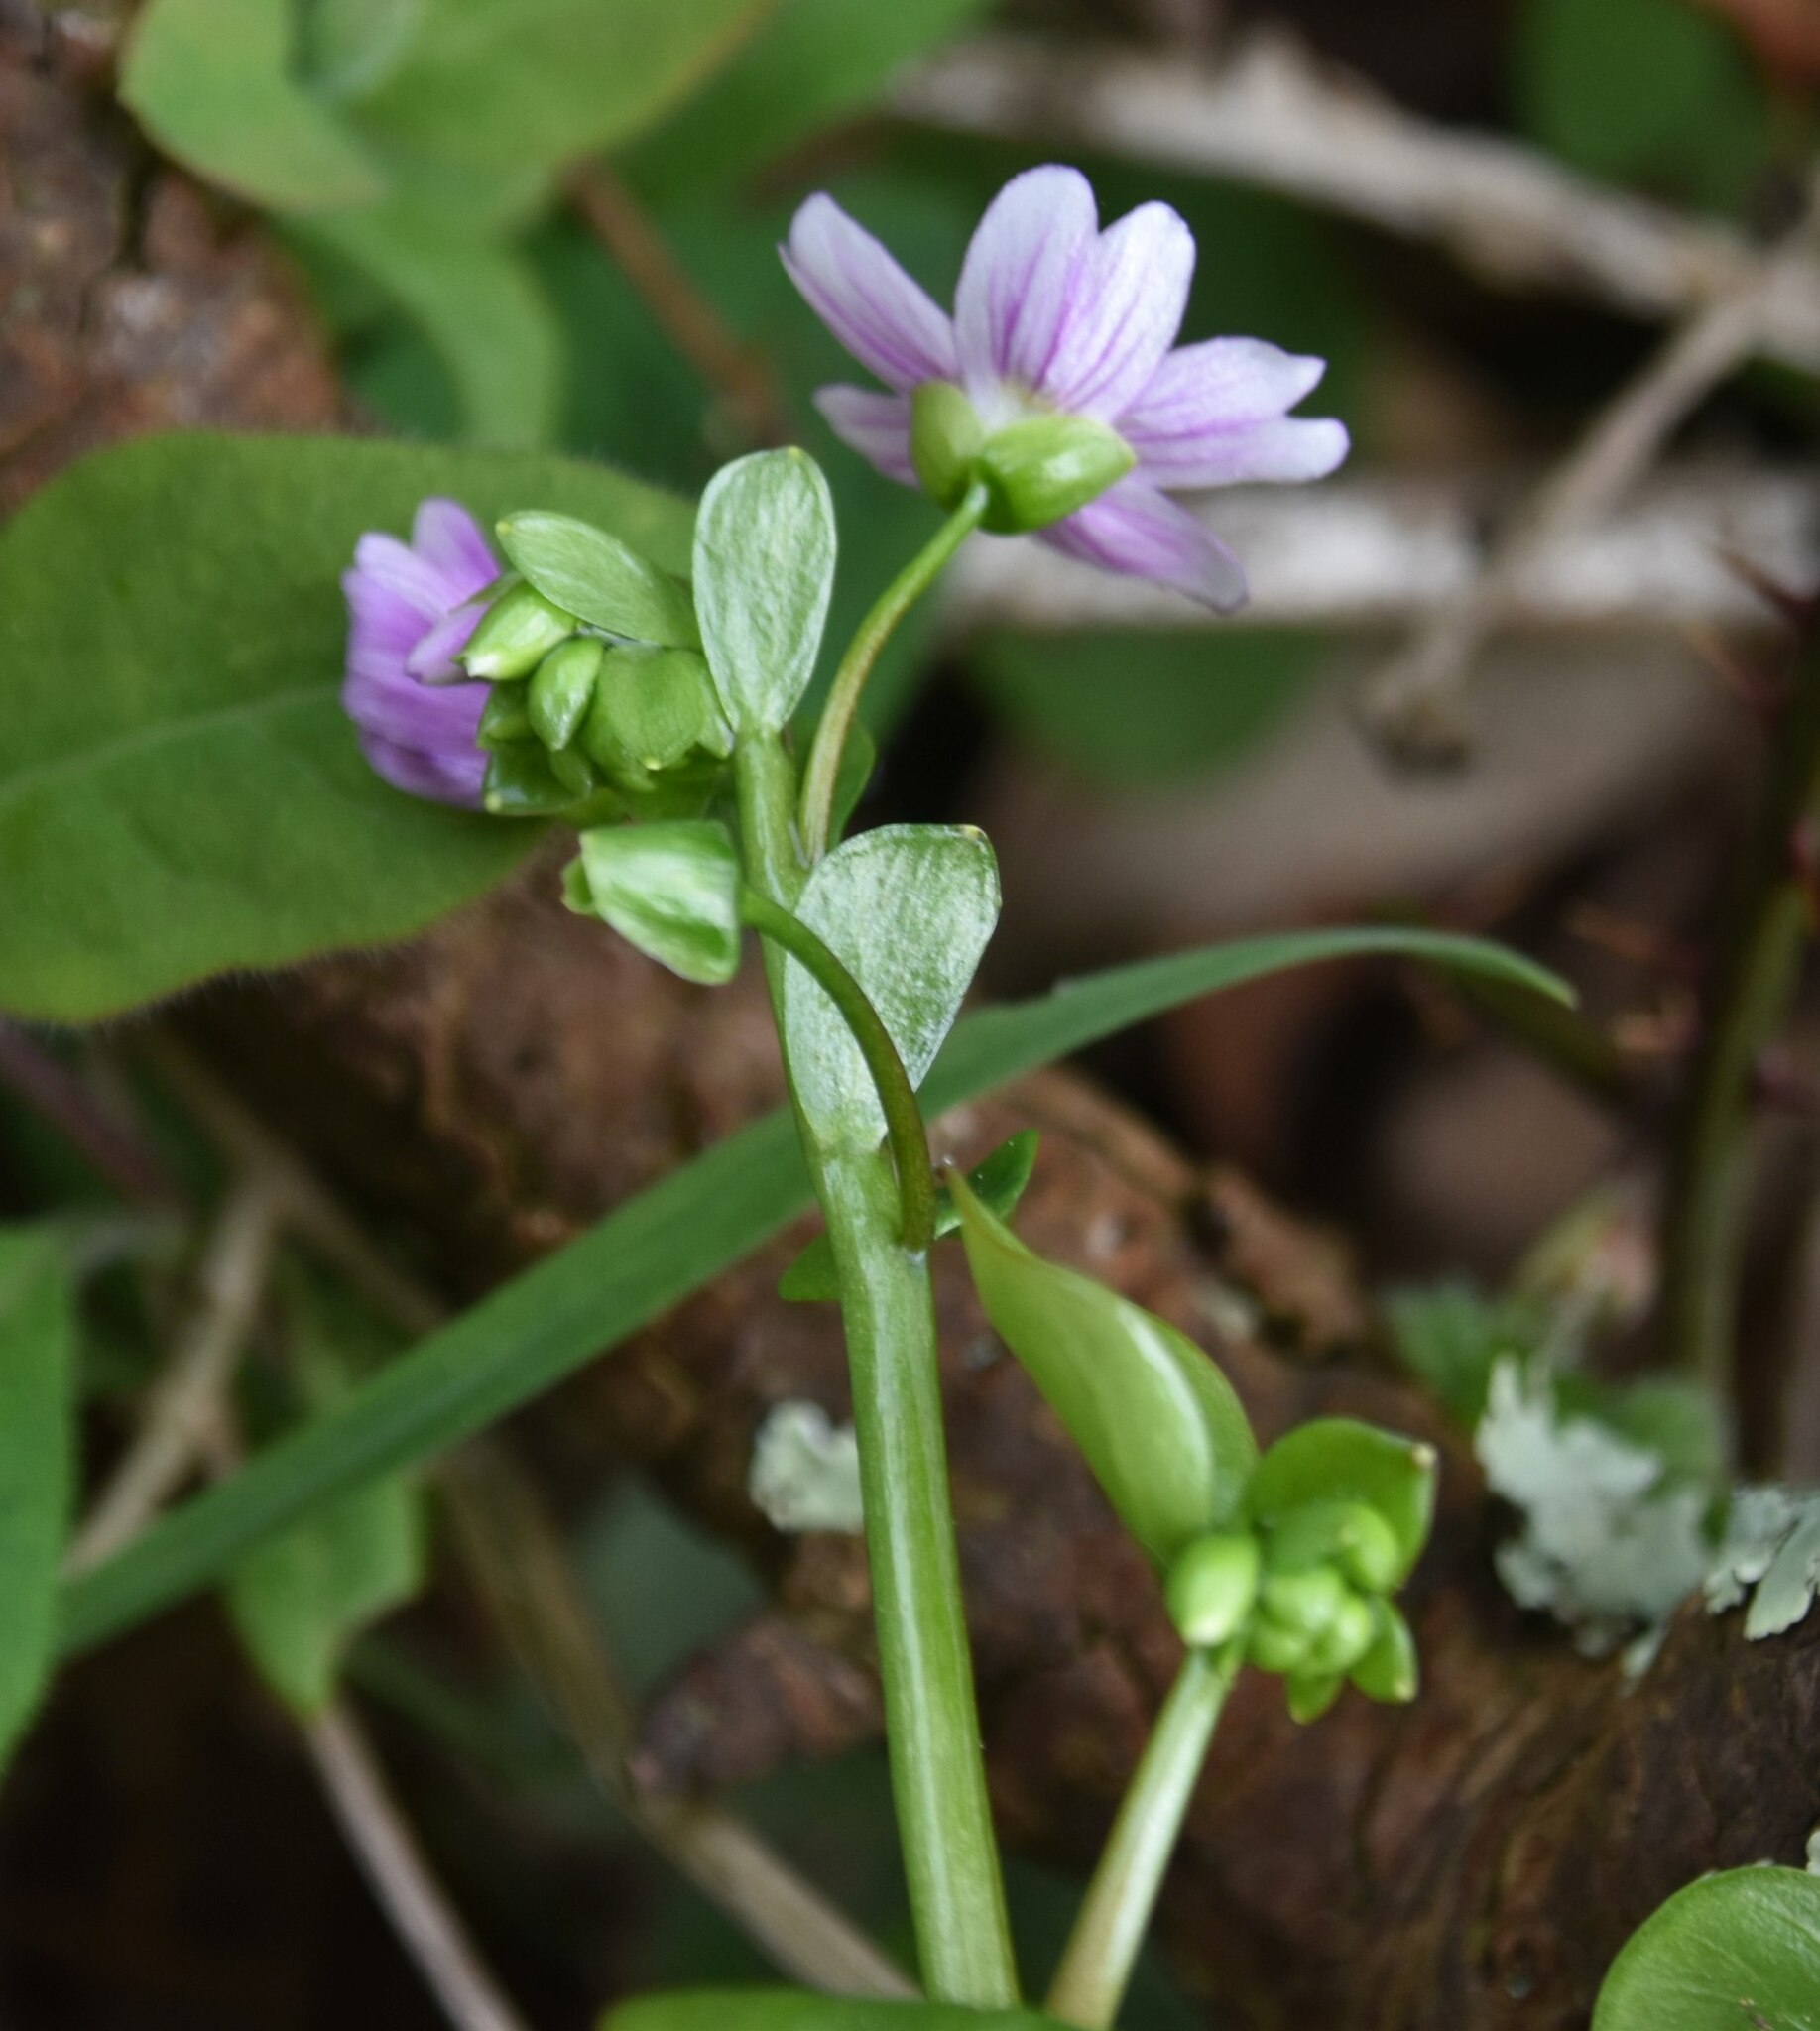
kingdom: Plantae
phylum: Tracheophyta
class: Magnoliopsida
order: Caryophyllales
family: Montiaceae
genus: Claytonia
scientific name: Claytonia sibirica
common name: Pink purslane
